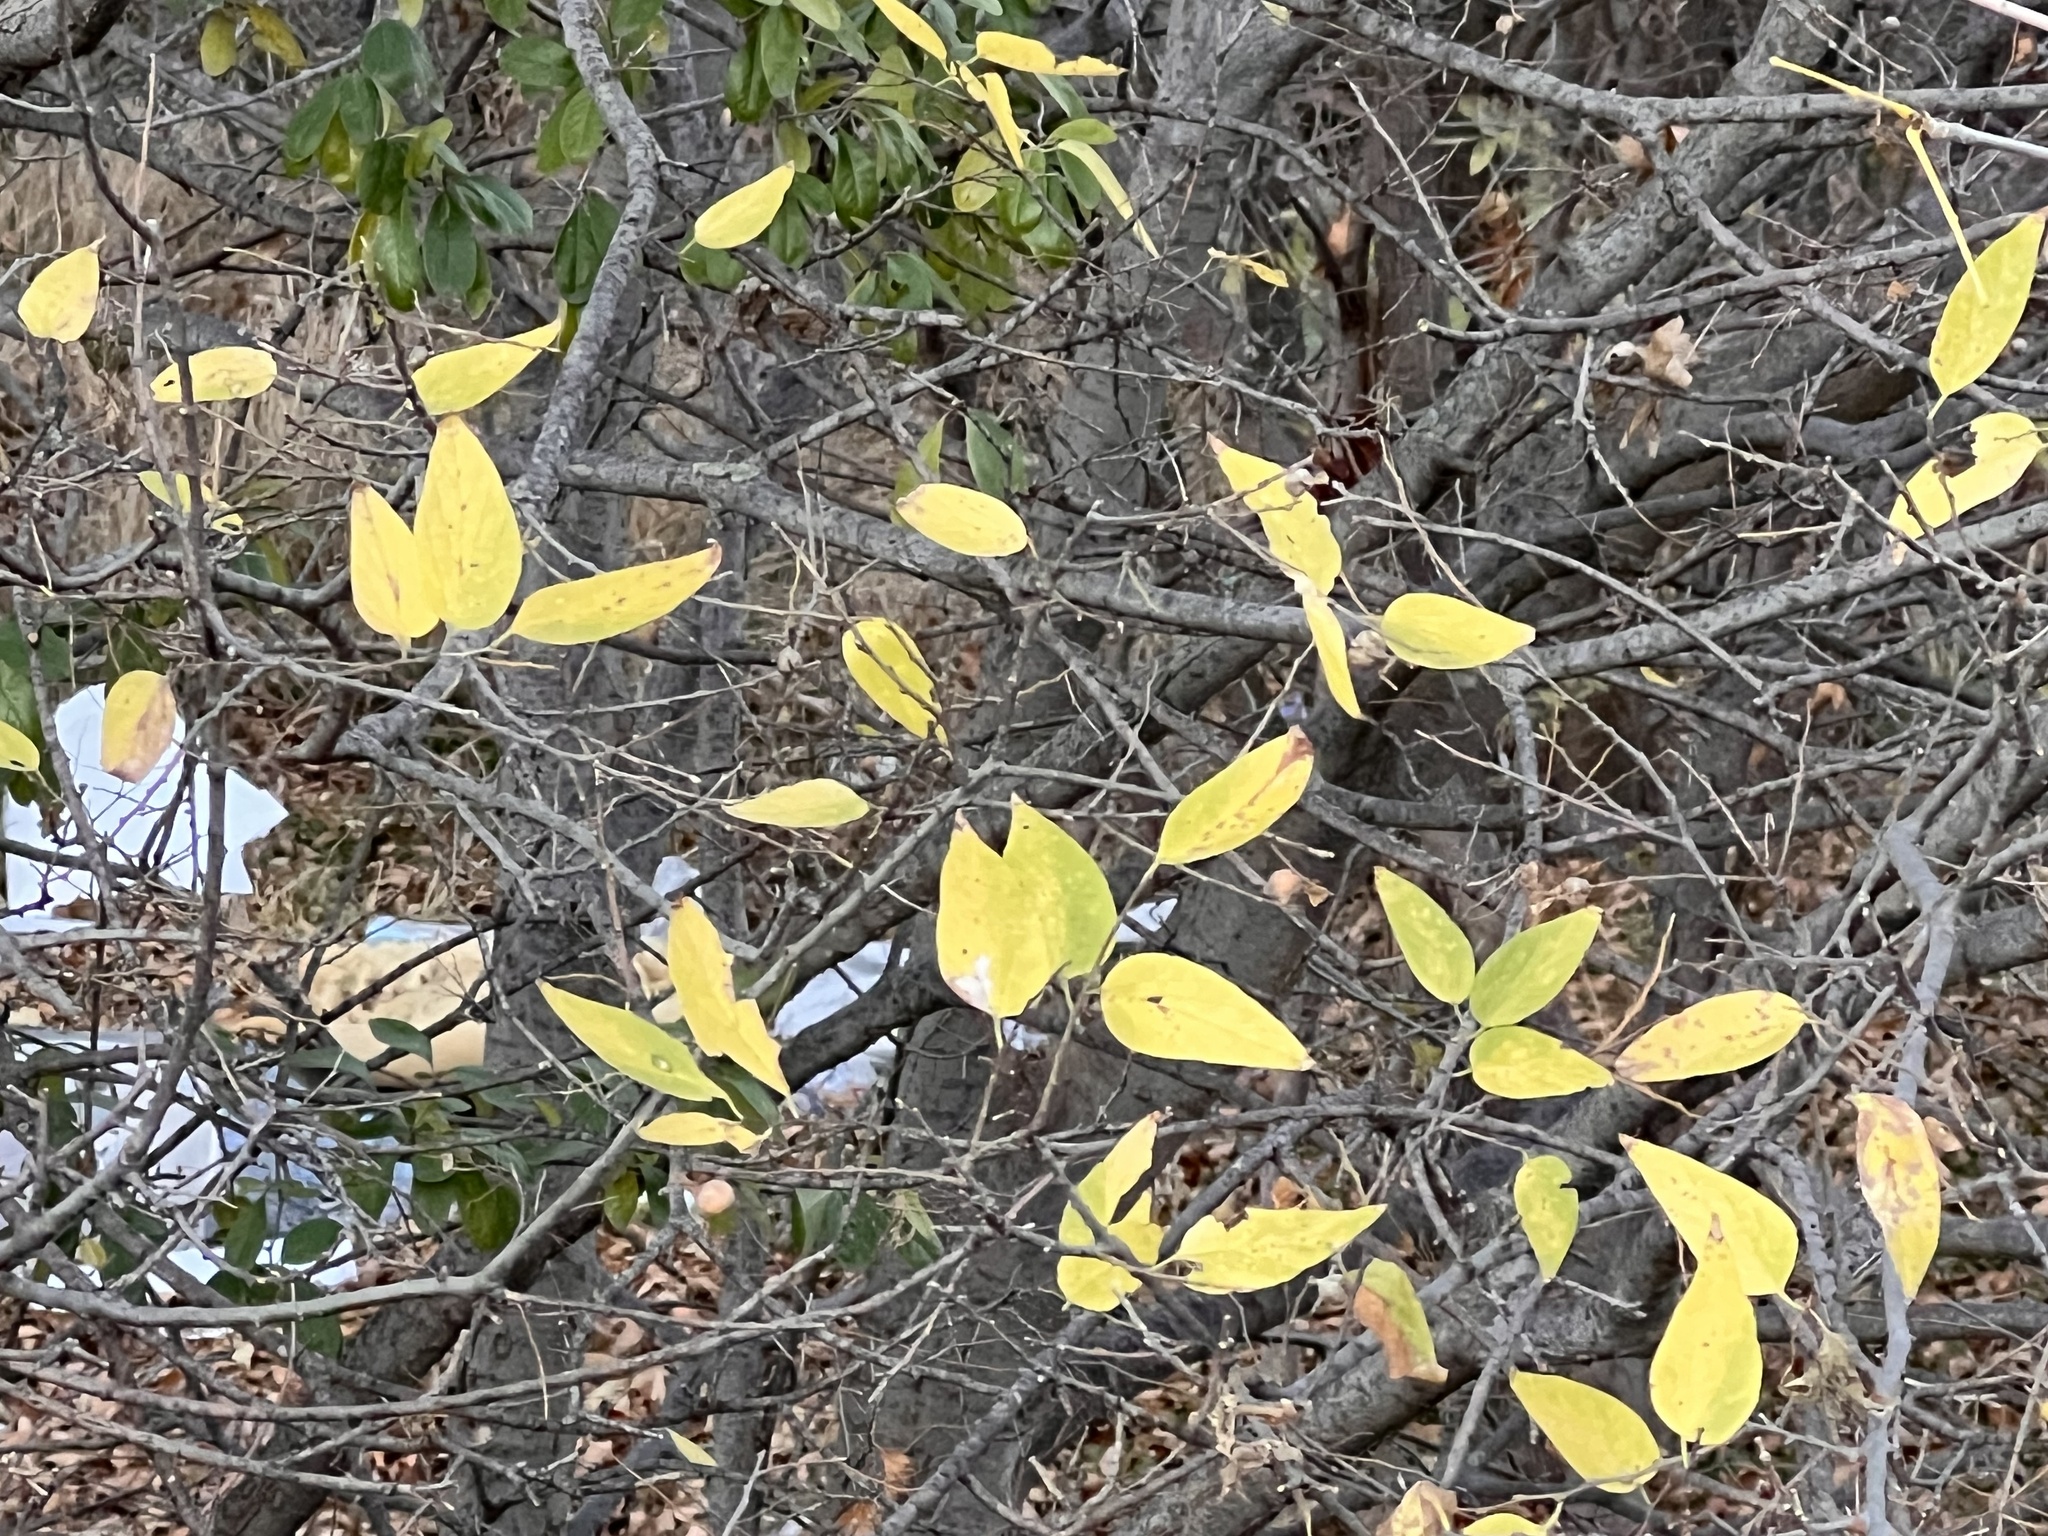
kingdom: Plantae
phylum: Tracheophyta
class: Magnoliopsida
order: Rosales
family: Cannabaceae
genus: Celtis
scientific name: Celtis laevigata
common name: Sugarberry
